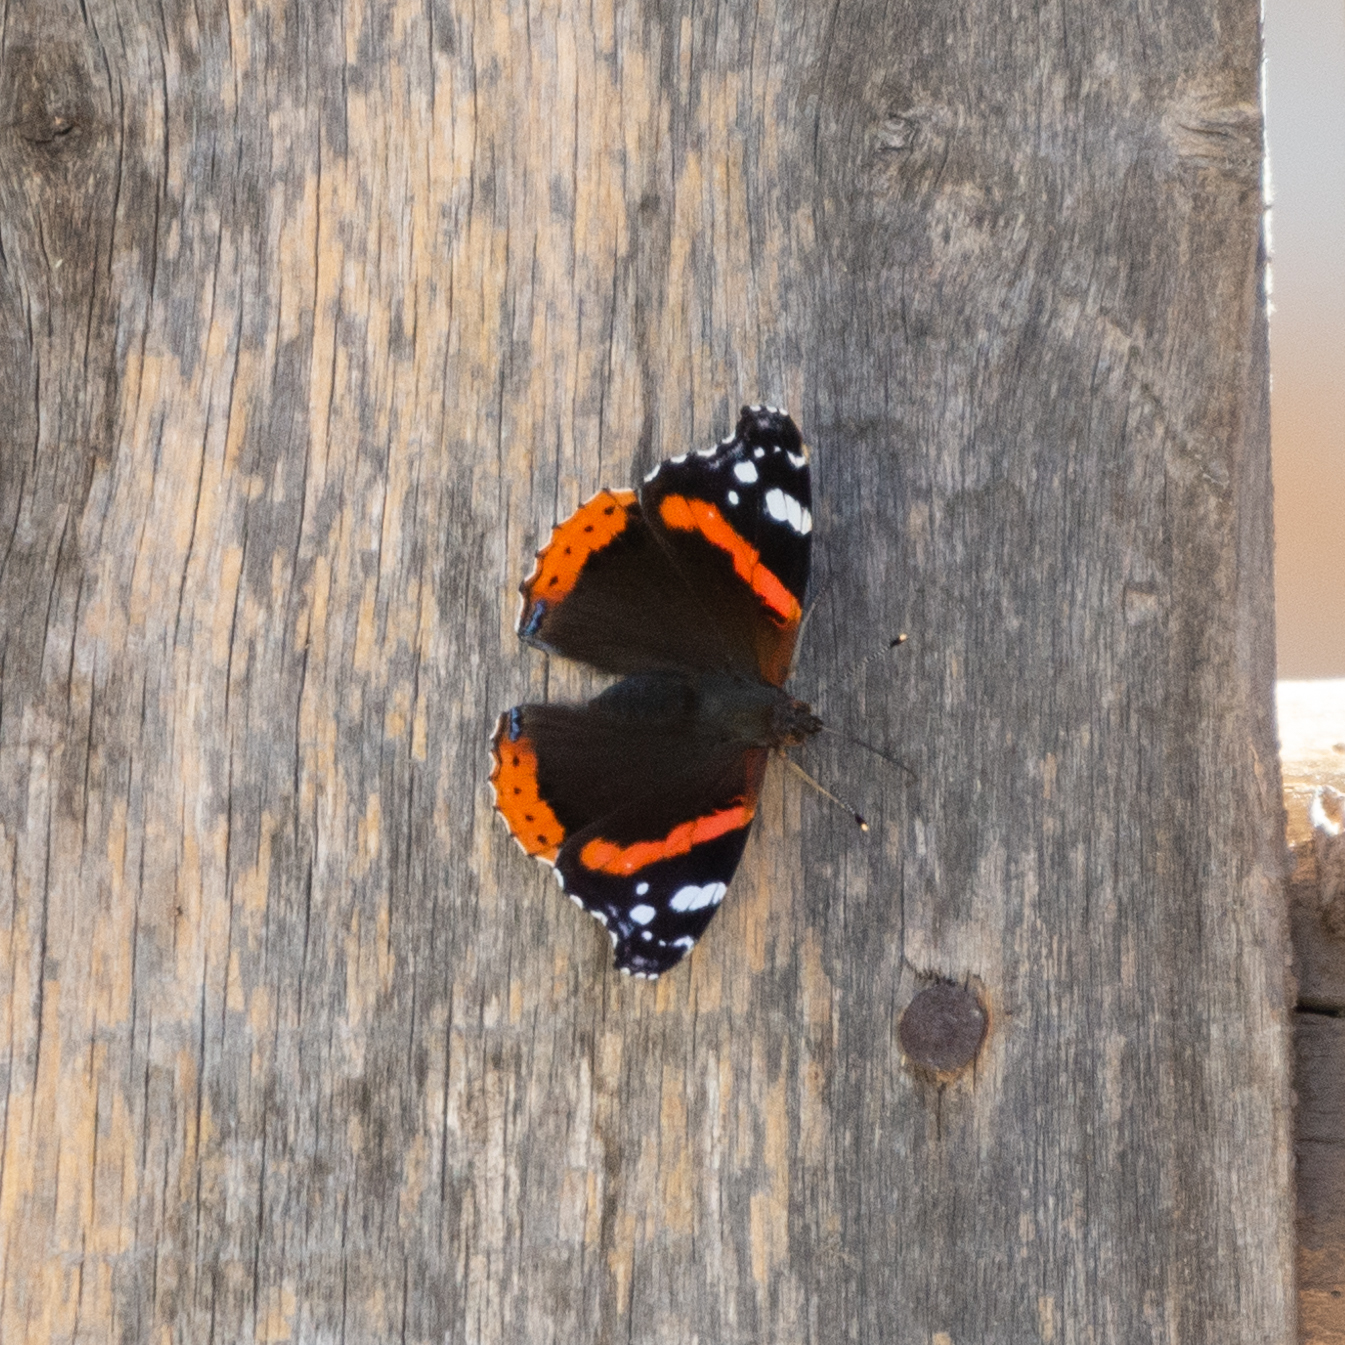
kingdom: Animalia
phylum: Arthropoda
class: Insecta
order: Lepidoptera
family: Nymphalidae
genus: Vanessa
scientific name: Vanessa atalanta
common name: Red admiral
